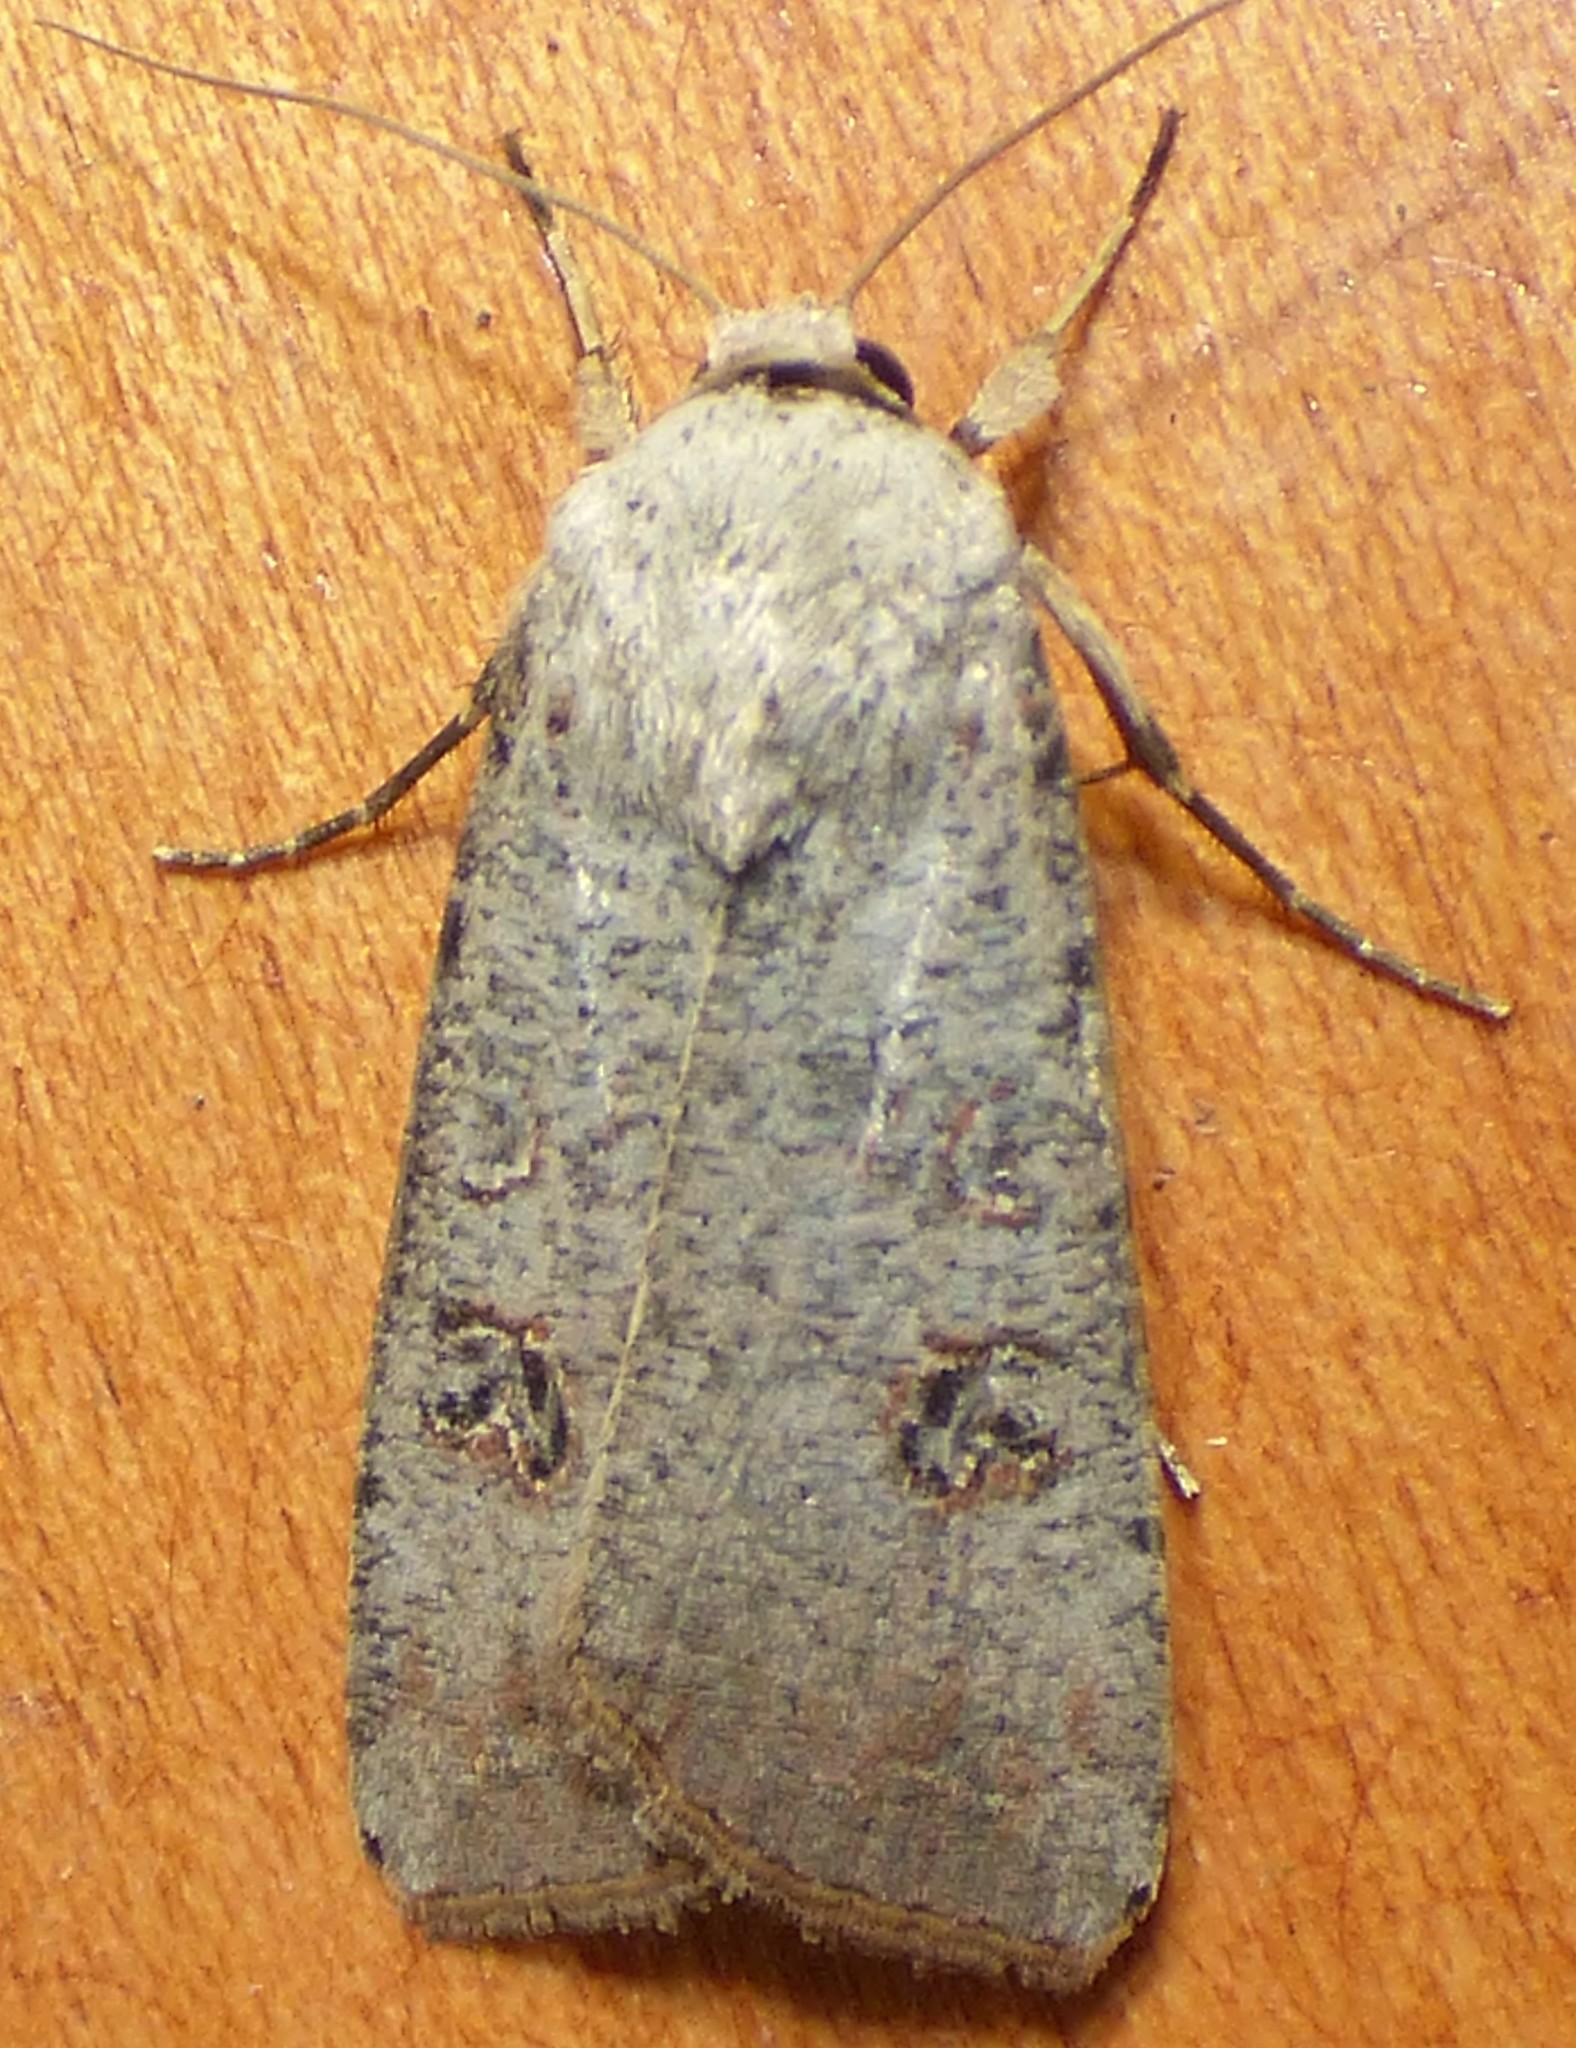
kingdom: Animalia
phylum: Arthropoda
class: Insecta
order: Lepidoptera
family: Noctuidae
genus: Anicla
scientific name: Anicla infecta
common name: Green cutworm
